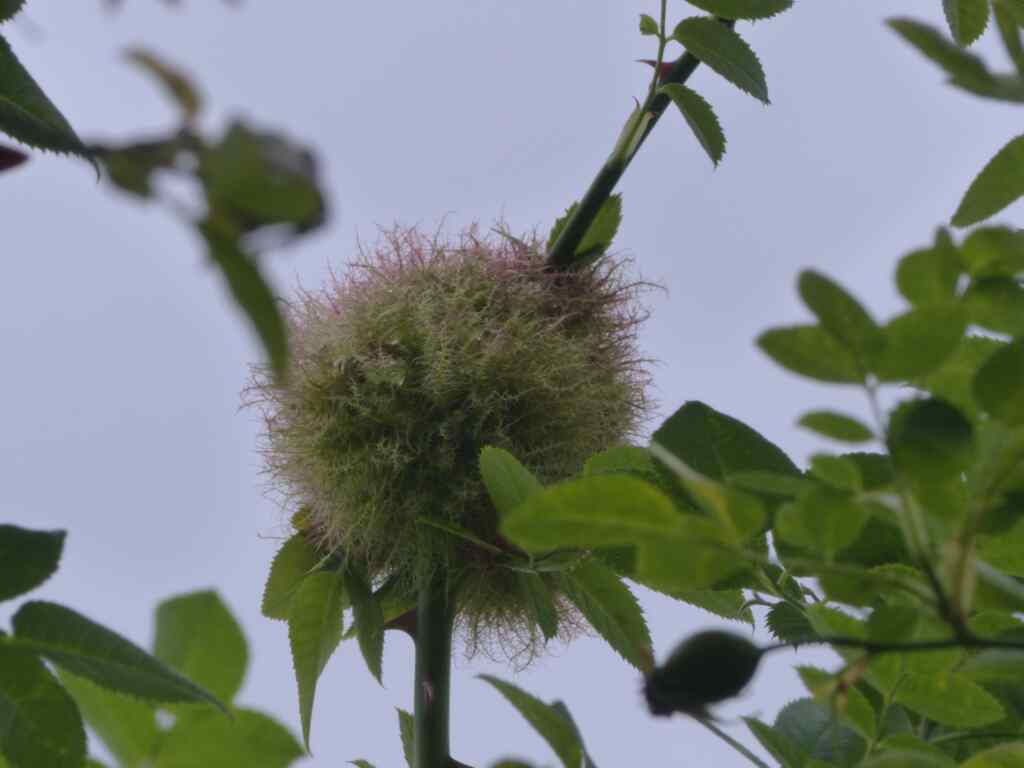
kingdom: Animalia
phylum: Arthropoda
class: Insecta
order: Hymenoptera
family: Cynipidae
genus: Diplolepis
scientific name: Diplolepis rosae
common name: Bedeguar gall
